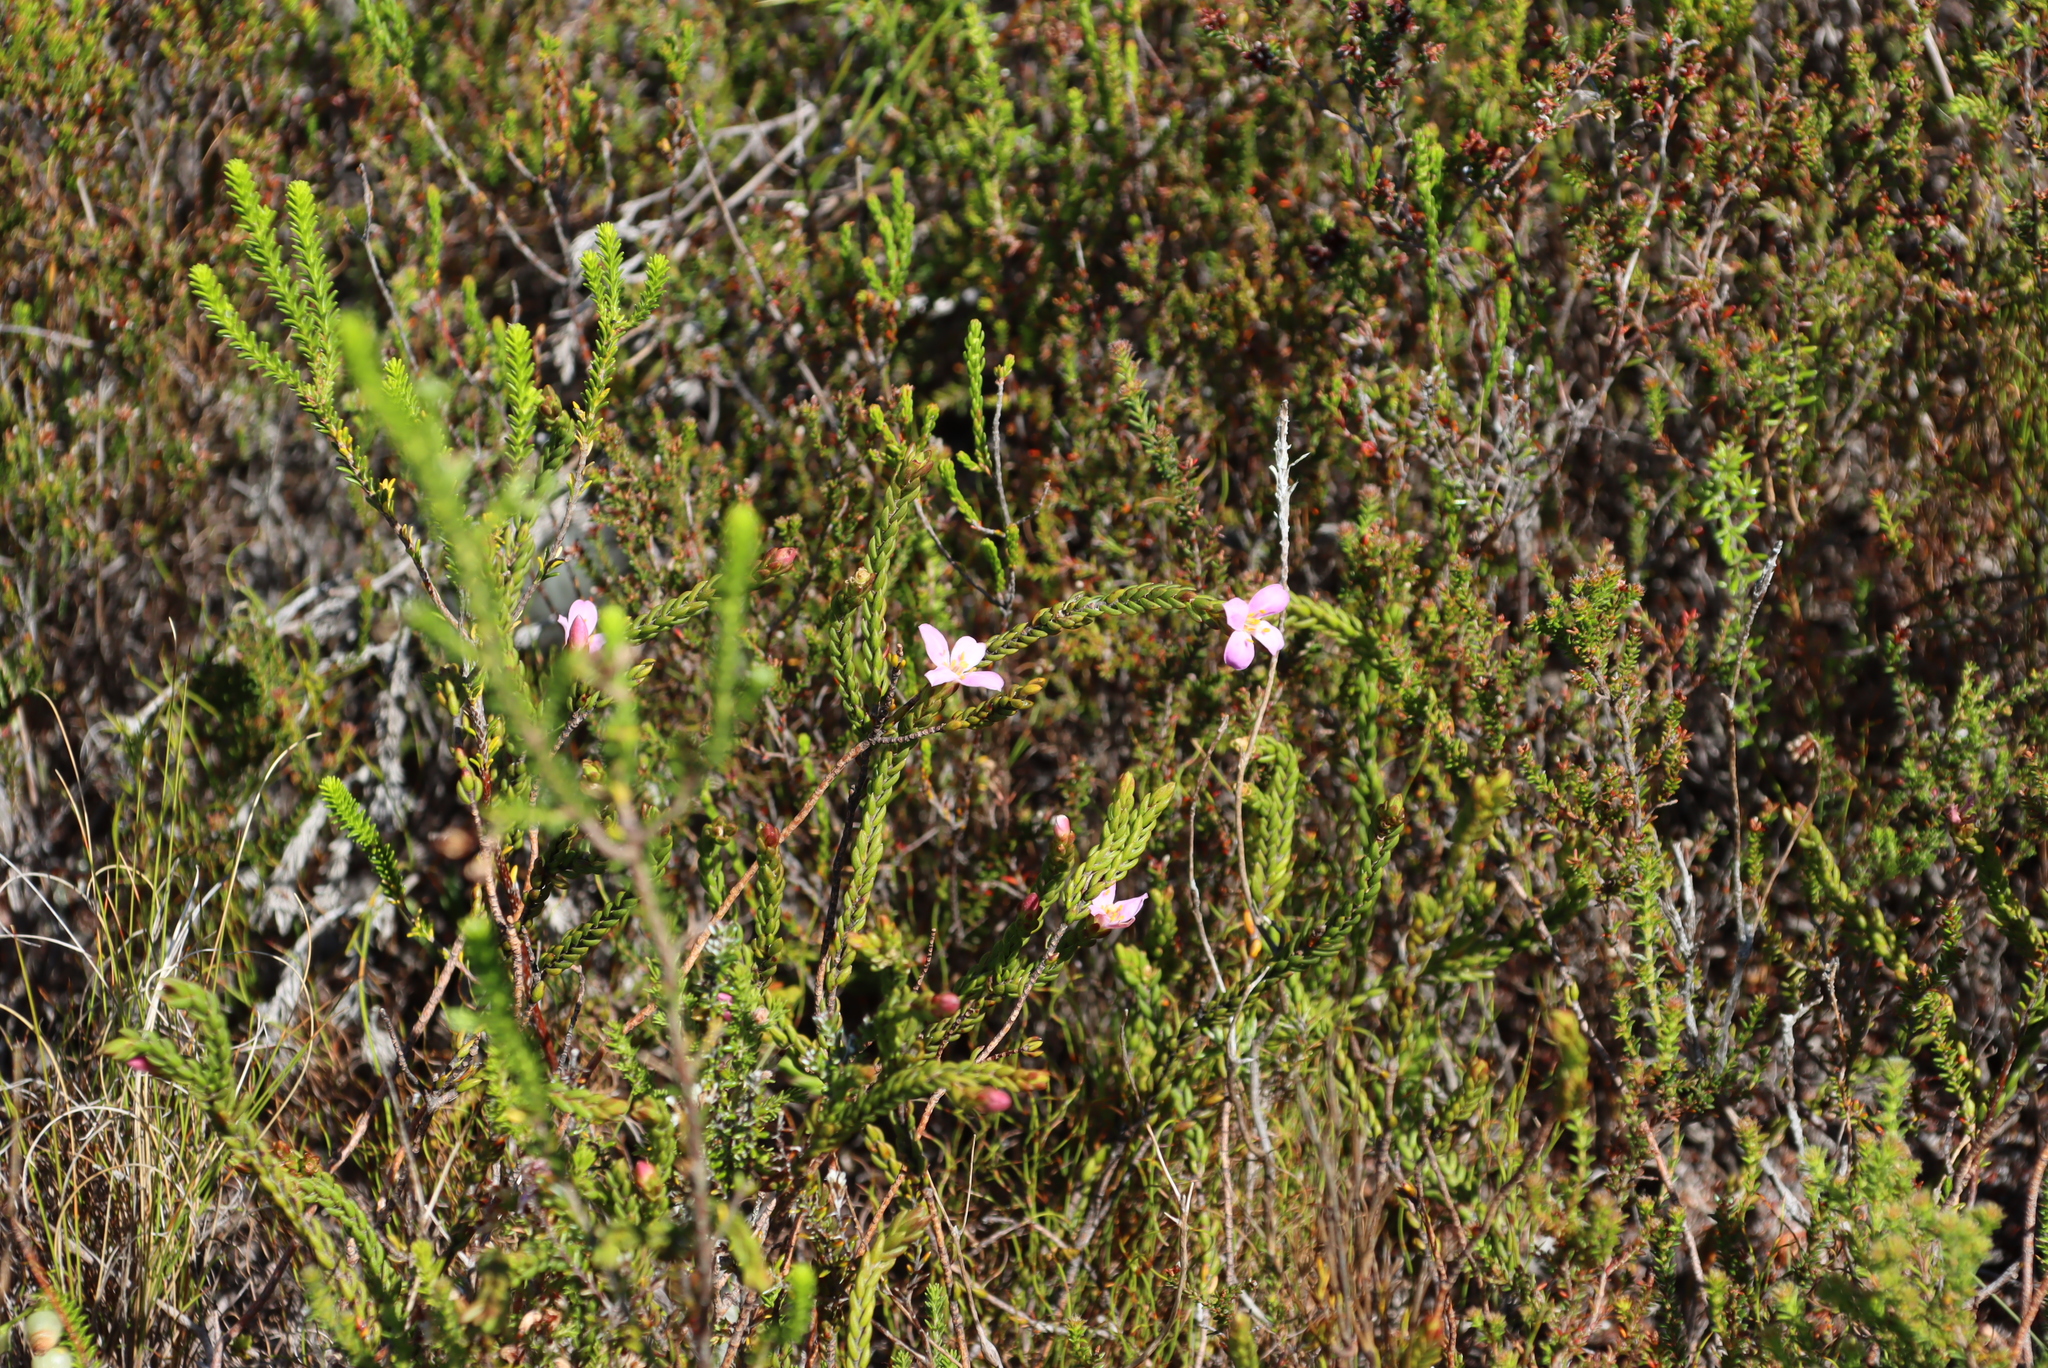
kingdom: Plantae
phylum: Tracheophyta
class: Magnoliopsida
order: Malvales
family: Thymelaeaceae
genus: Lachnaea
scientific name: Lachnaea grandiflora
